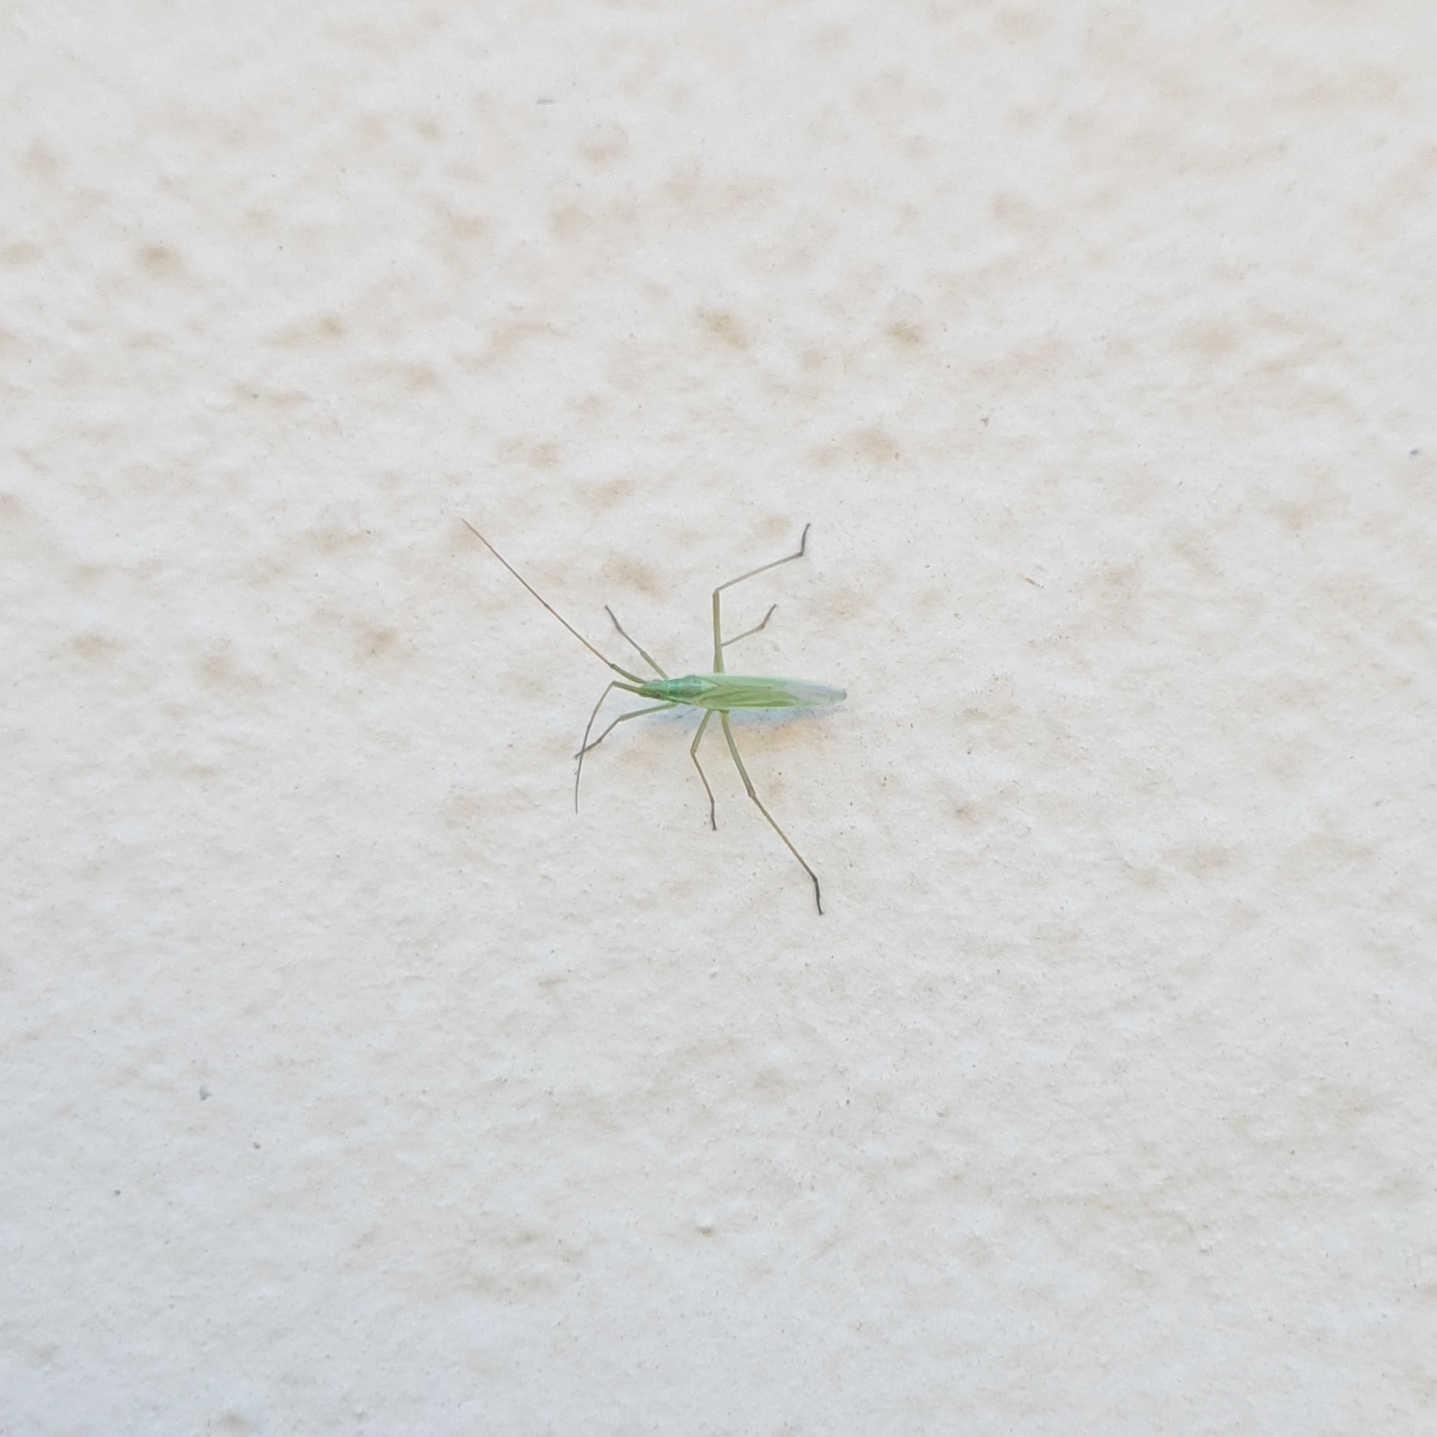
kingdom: Animalia
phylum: Arthropoda
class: Insecta
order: Hemiptera
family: Miridae
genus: Megaloceroea
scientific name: Megaloceroea recticornis
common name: Plant bug
